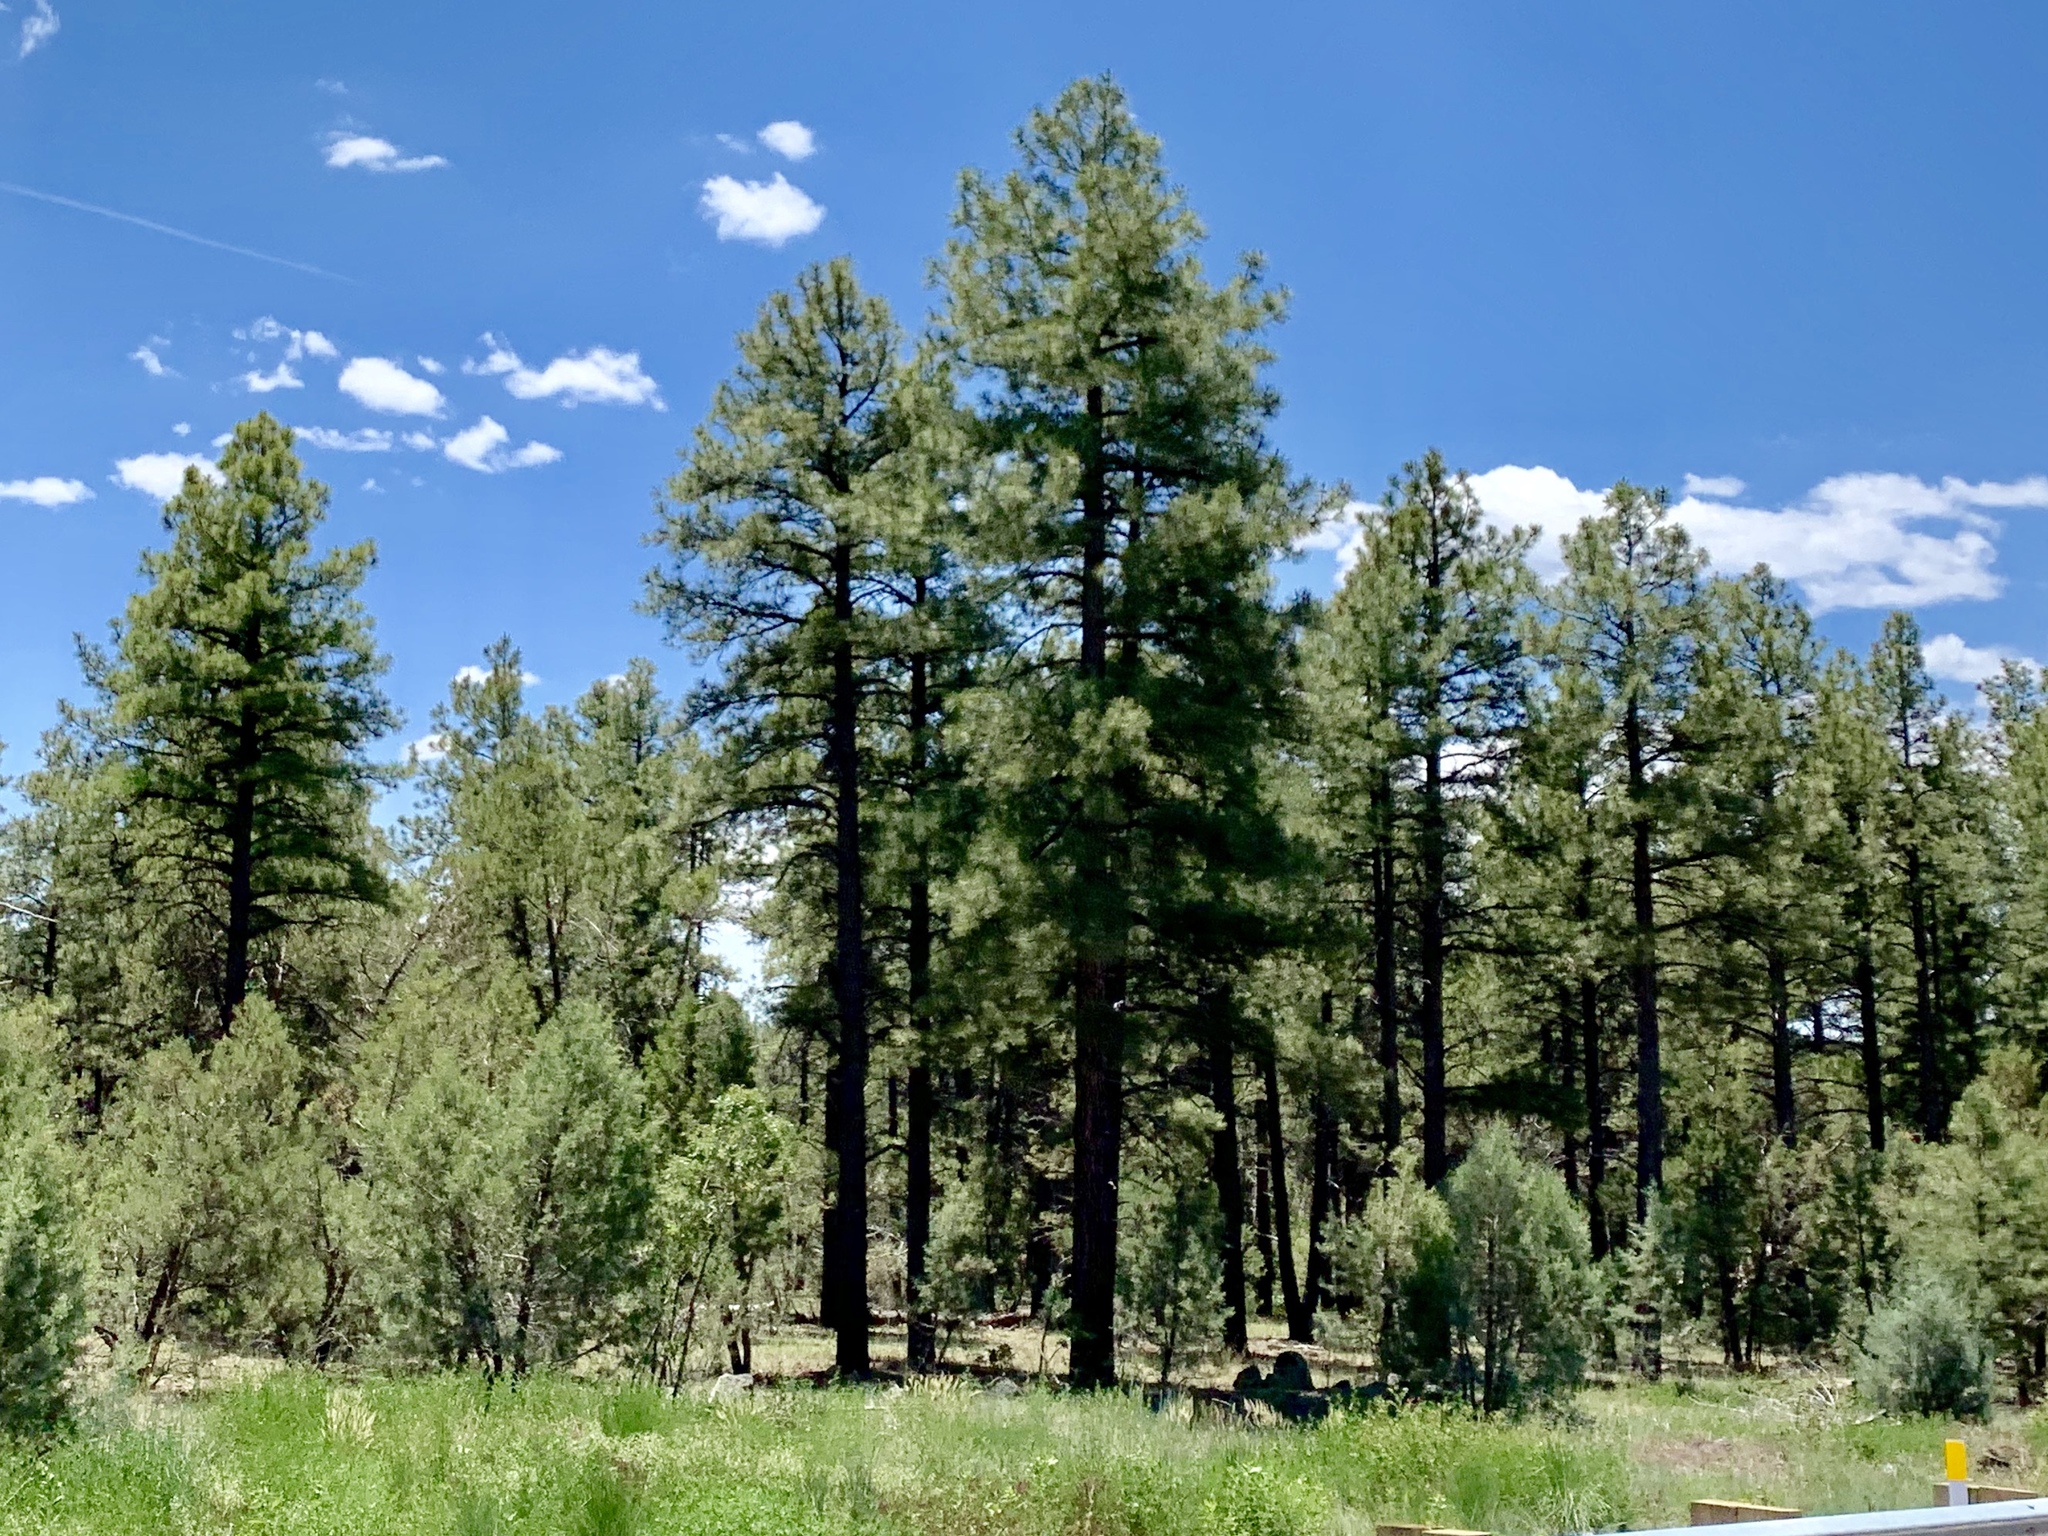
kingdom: Plantae
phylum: Tracheophyta
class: Pinopsida
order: Pinales
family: Pinaceae
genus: Pinus
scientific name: Pinus ponderosa
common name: Western yellow-pine
